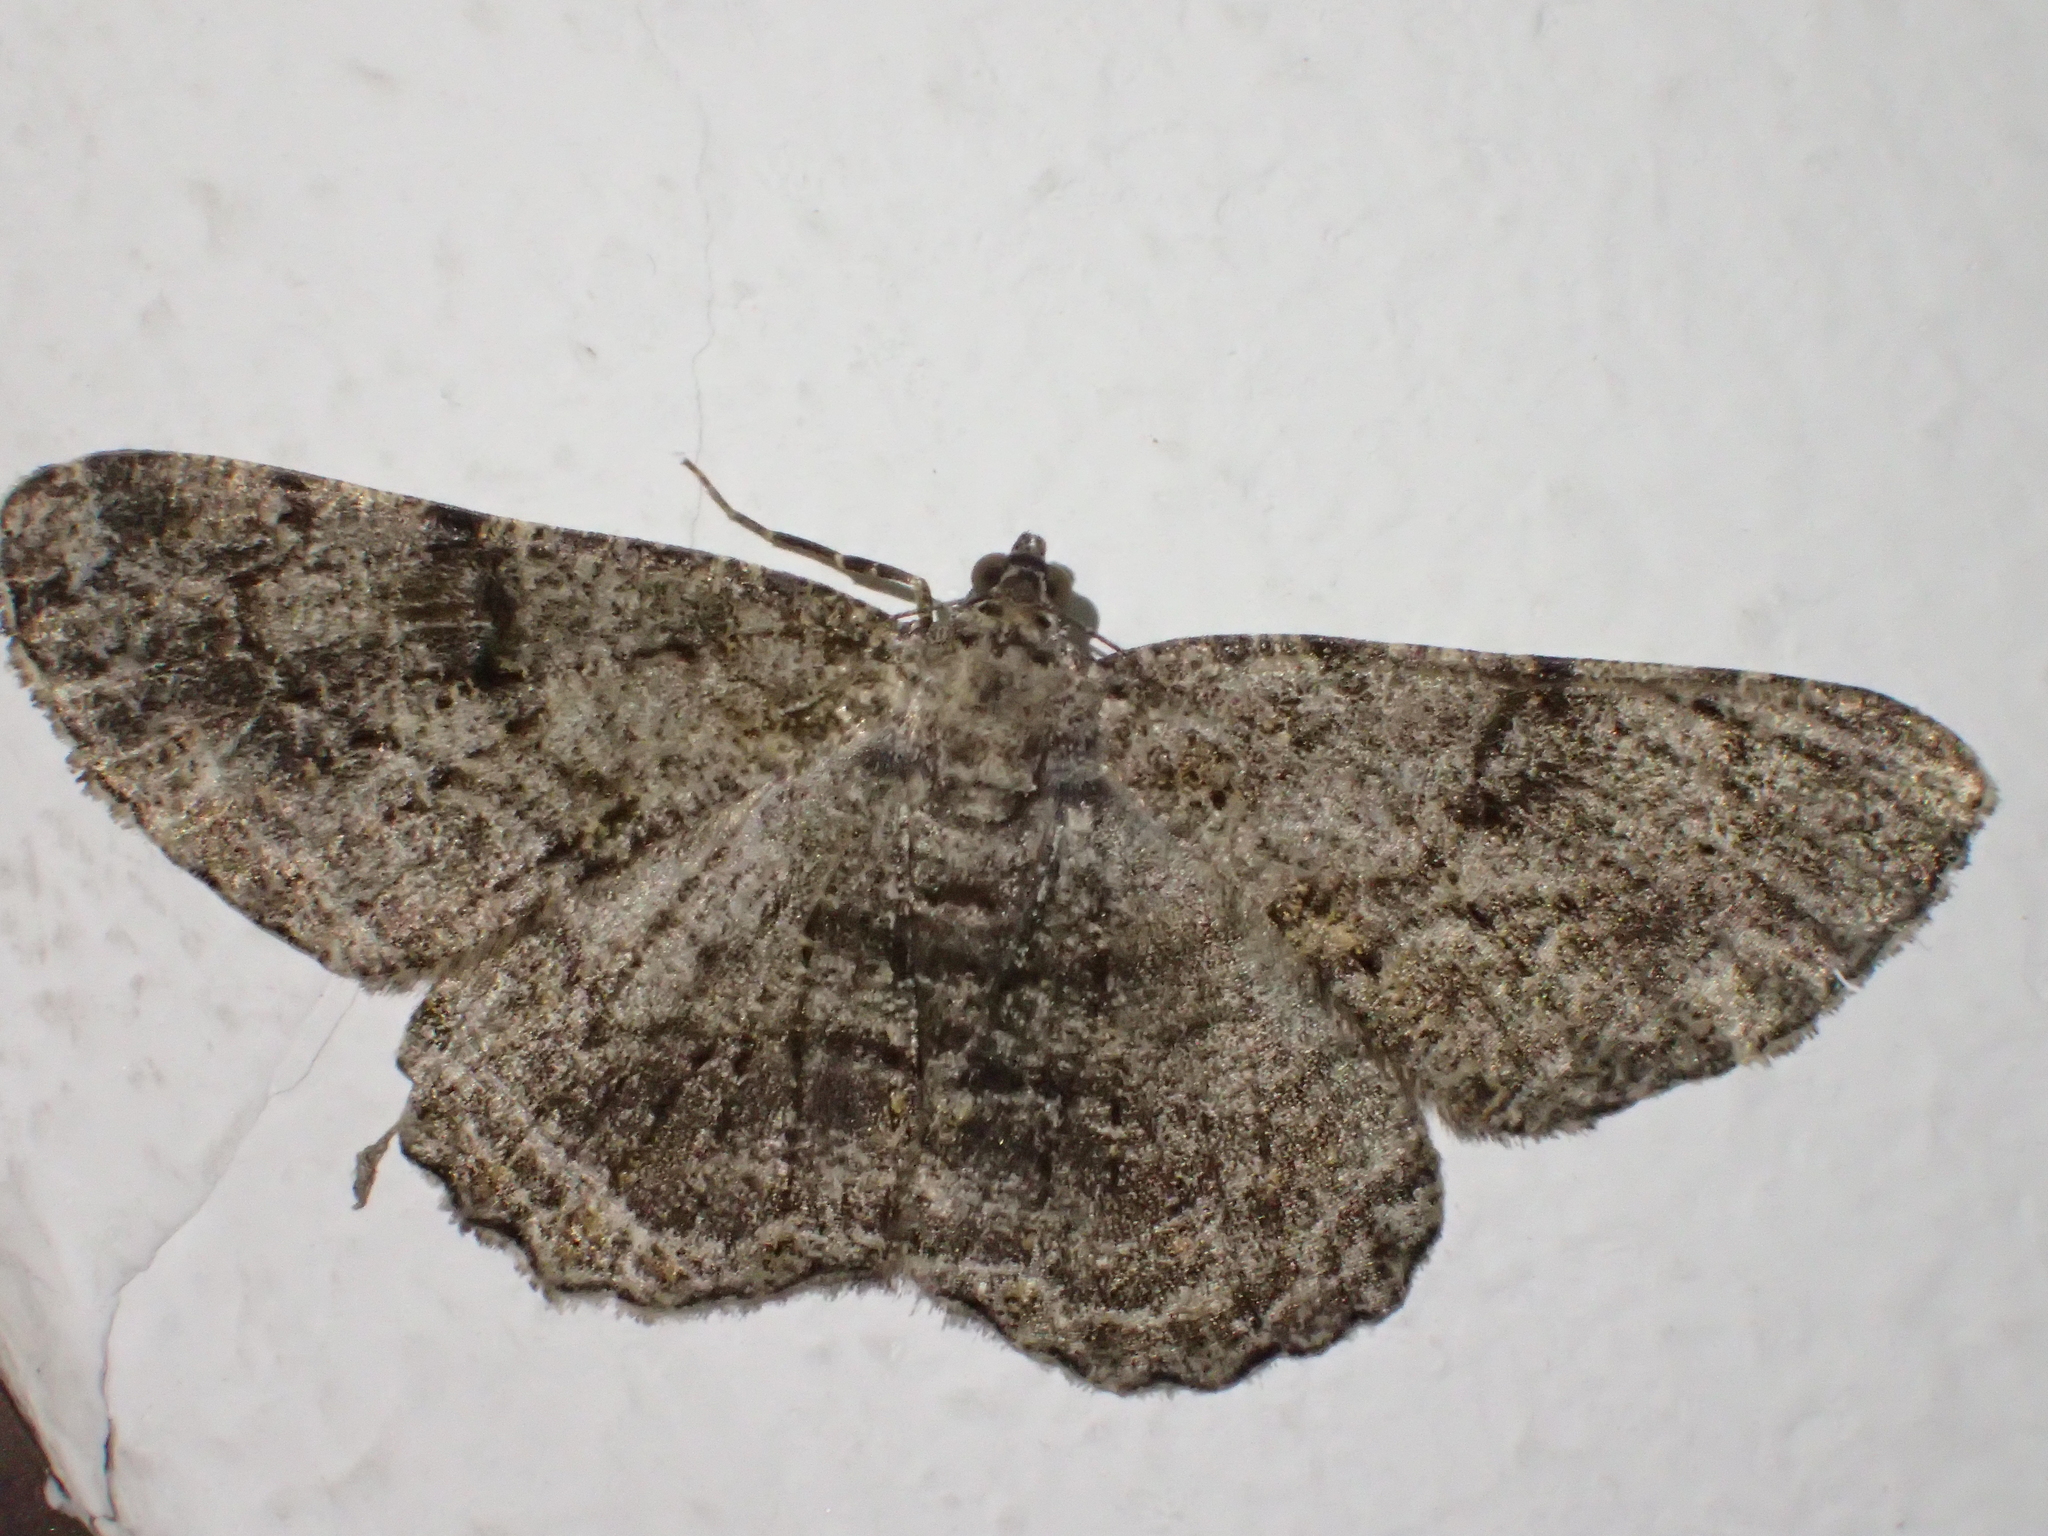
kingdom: Animalia
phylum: Arthropoda
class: Insecta
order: Lepidoptera
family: Geometridae
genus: Peribatodes
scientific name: Peribatodes rhomboidaria
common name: Willow beauty
